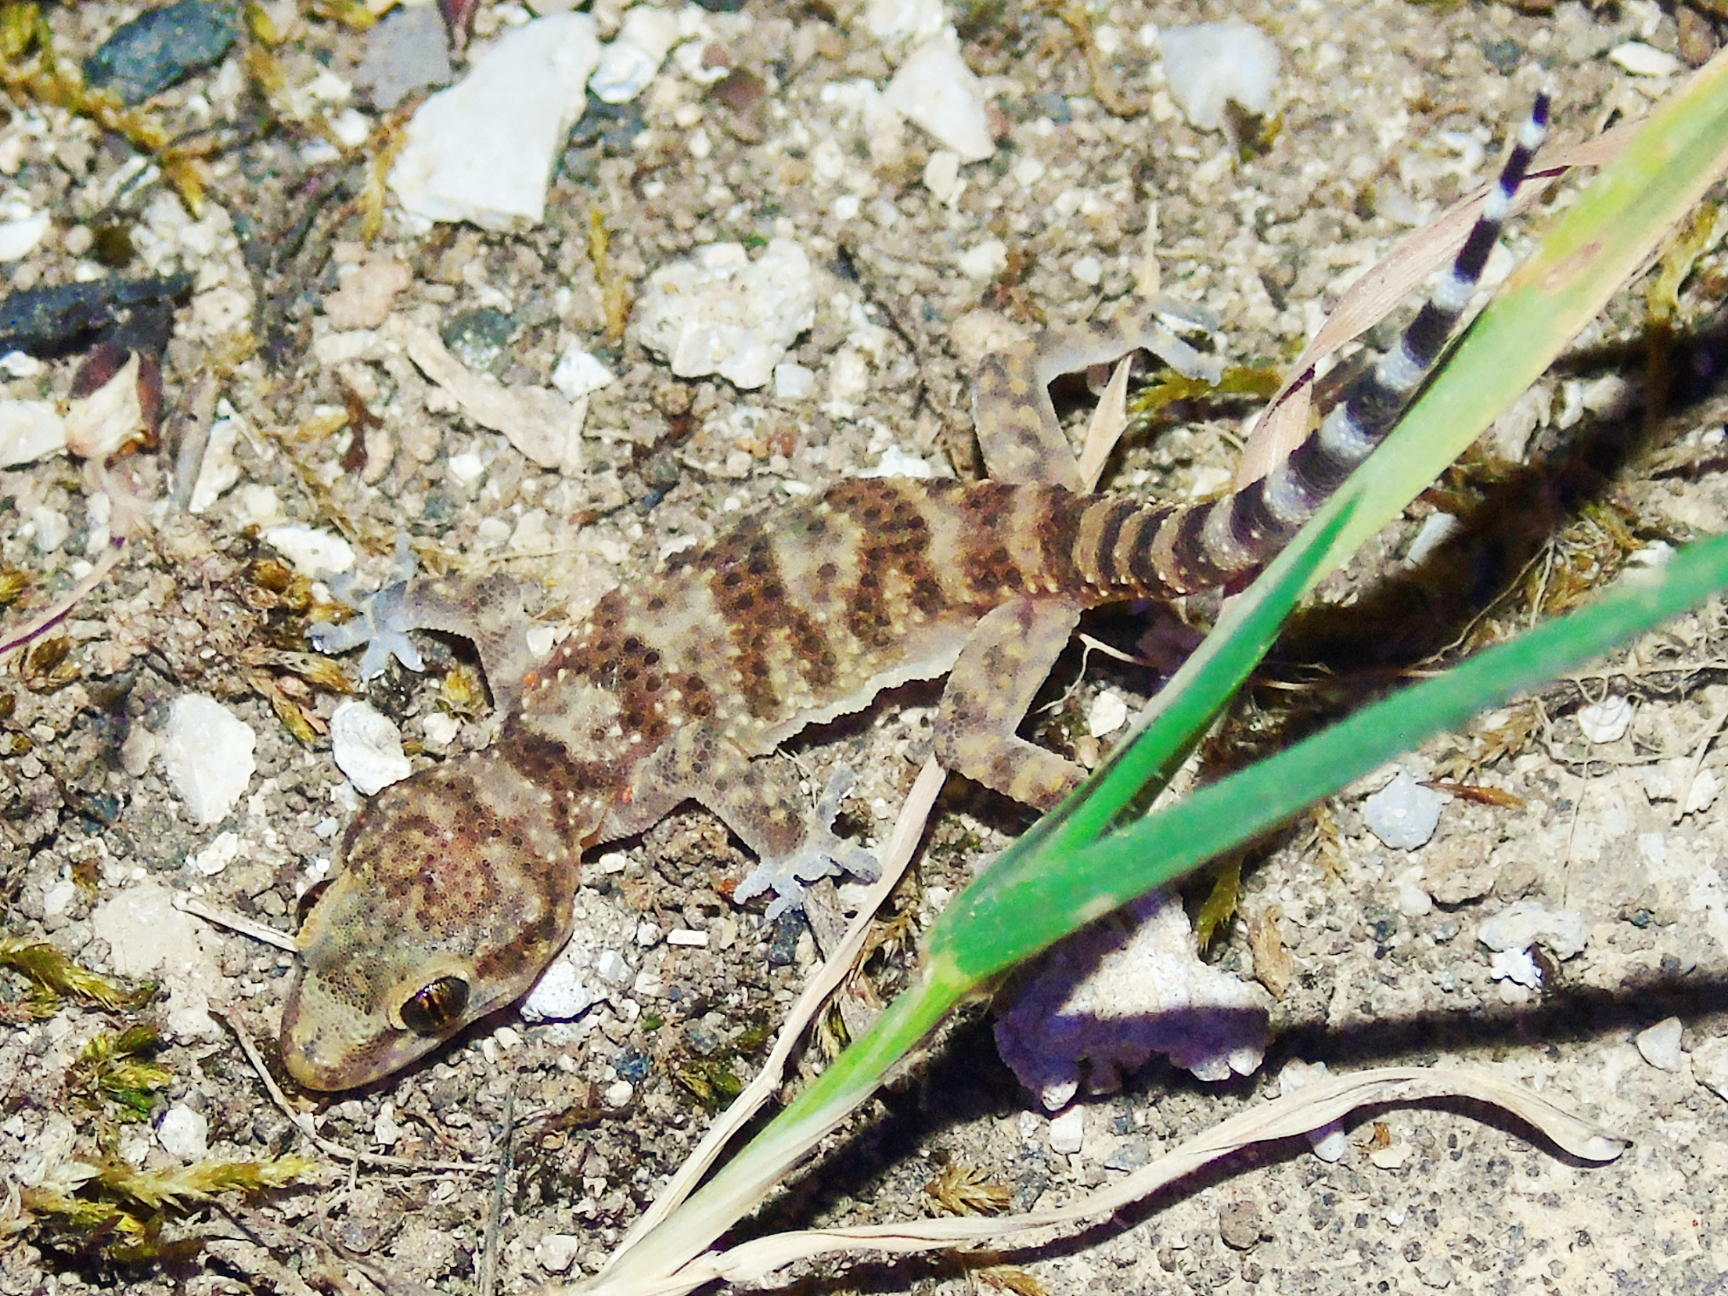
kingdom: Animalia
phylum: Chordata
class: Squamata
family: Gekkonidae
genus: Hemidactylus
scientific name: Hemidactylus turcicus
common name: Turkish gecko
